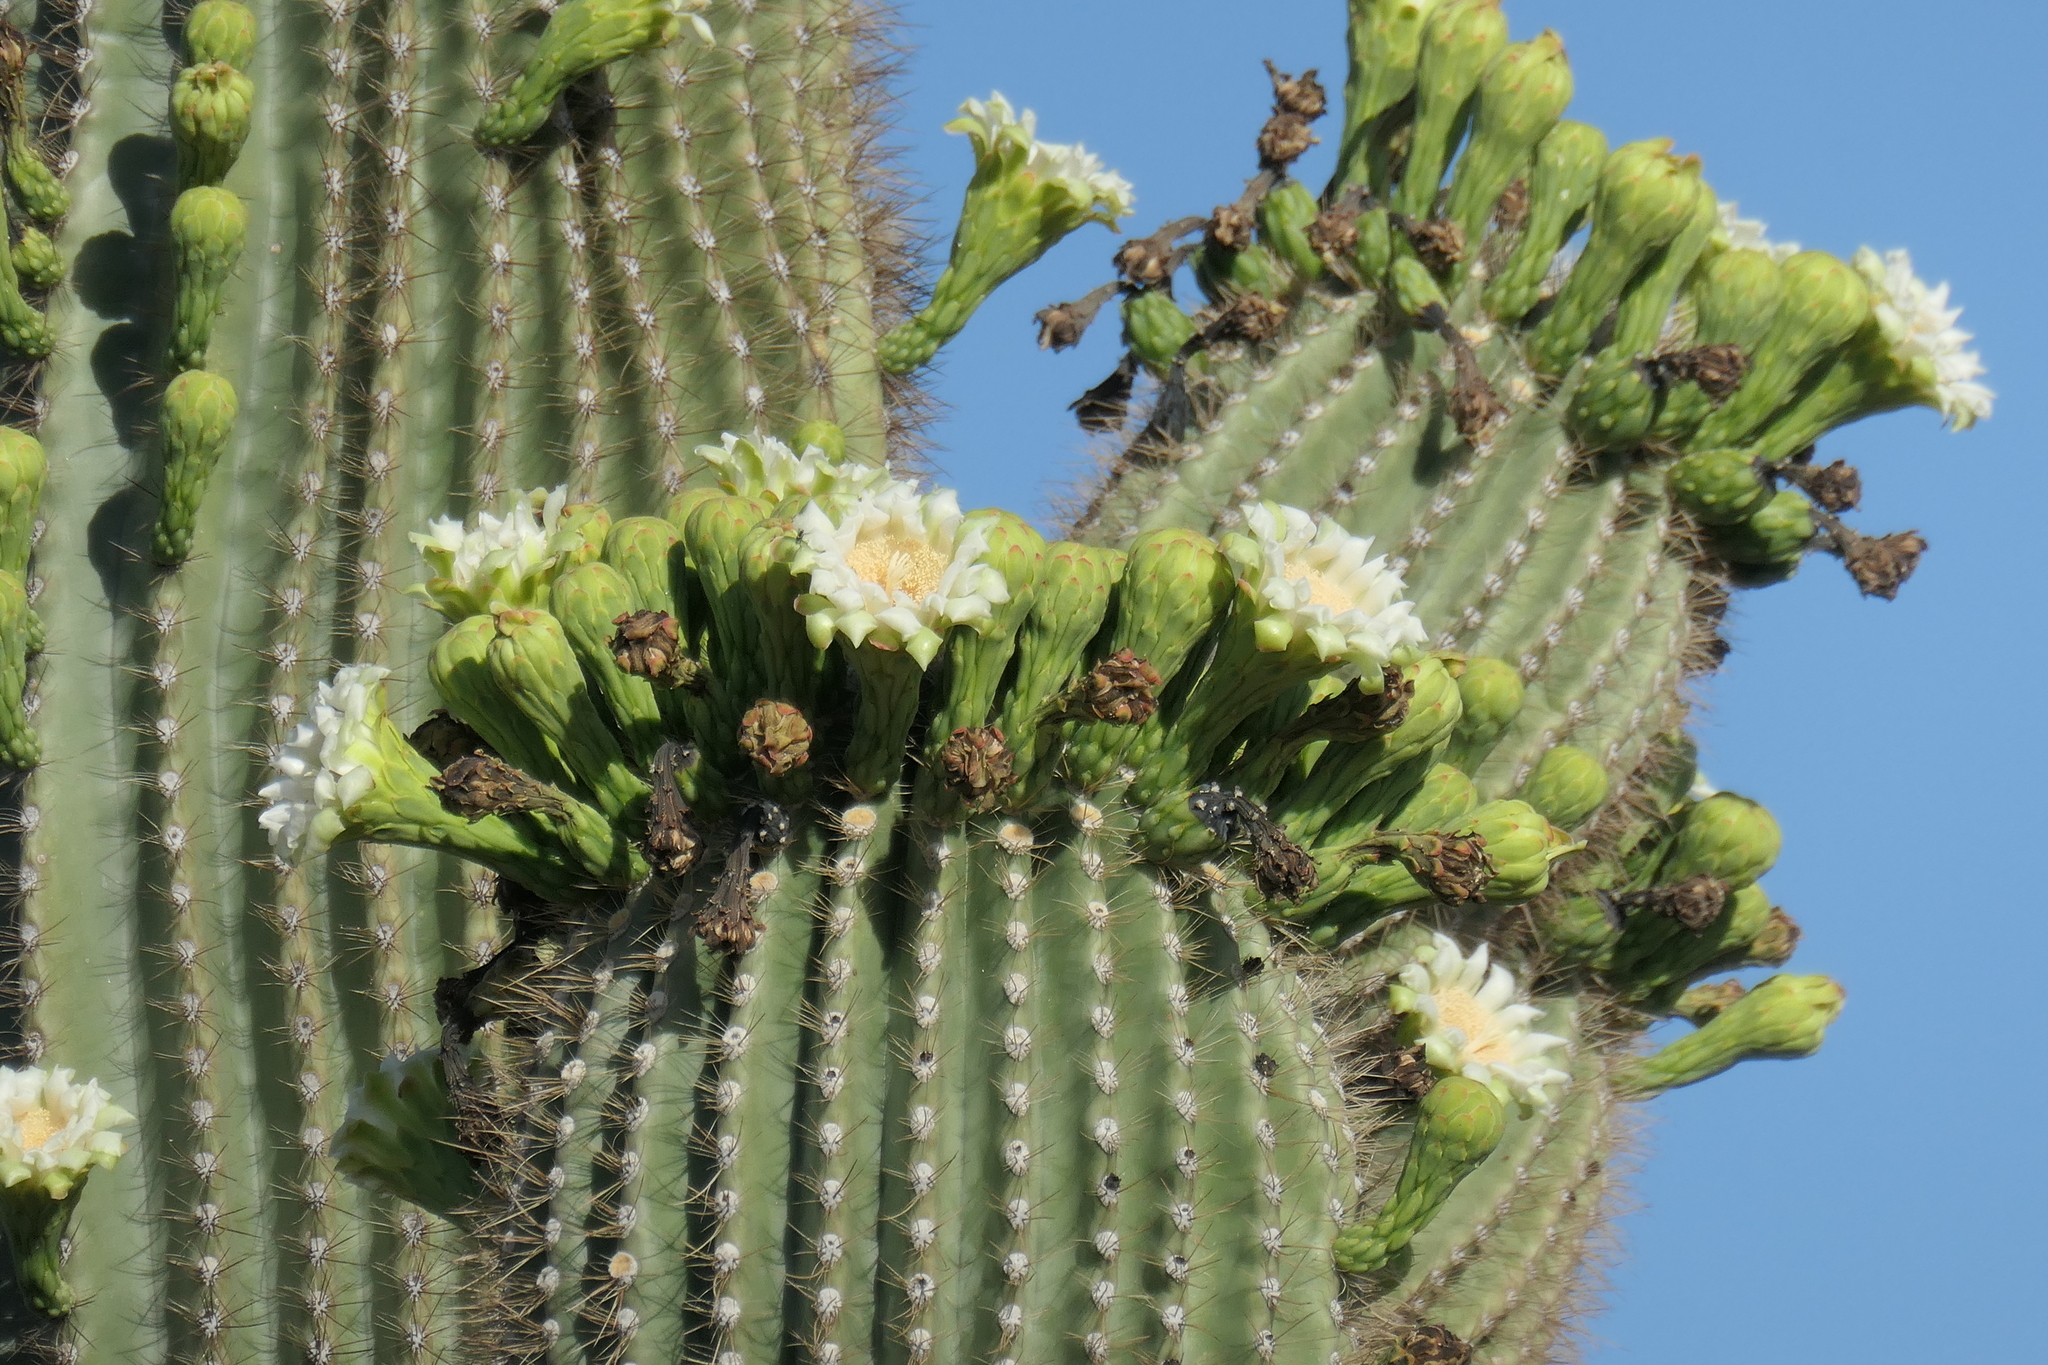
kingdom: Plantae
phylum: Tracheophyta
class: Magnoliopsida
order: Caryophyllales
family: Cactaceae
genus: Carnegiea
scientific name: Carnegiea gigantea
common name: Saguaro
